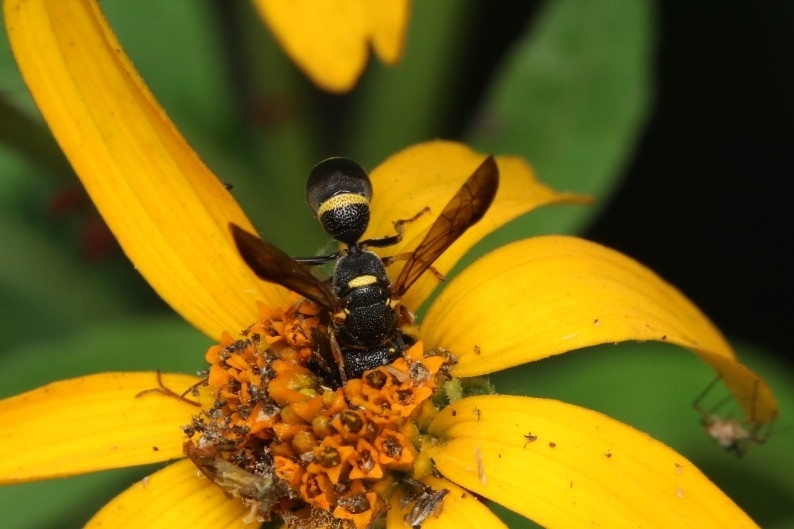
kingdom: Animalia
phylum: Arthropoda
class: Insecta
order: Hymenoptera
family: Eumenidae
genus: Parancistrocerus
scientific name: Parancistrocerus perennis
